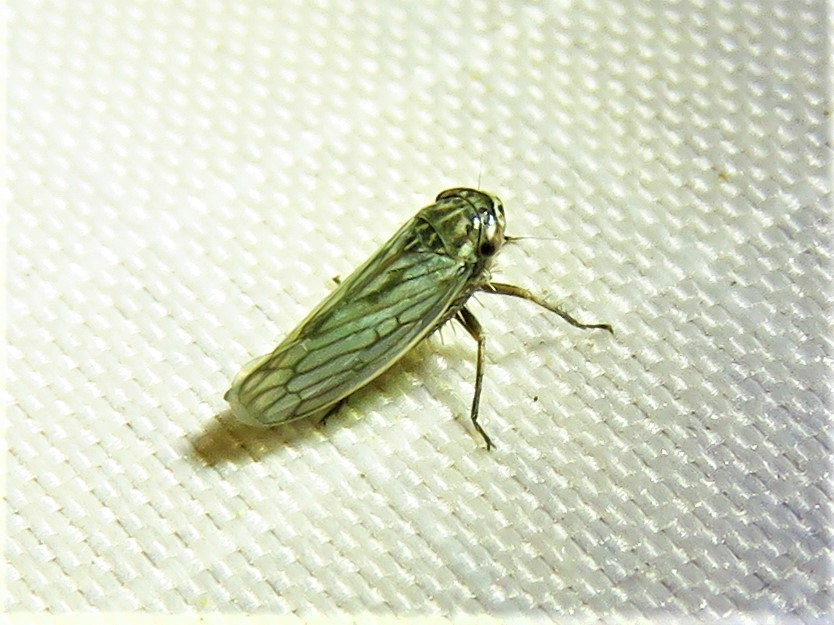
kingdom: Animalia
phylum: Arthropoda
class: Insecta
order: Hemiptera
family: Cicadellidae
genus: Exitianus
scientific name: Exitianus exitiosus
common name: Gray lawn leafhopper
